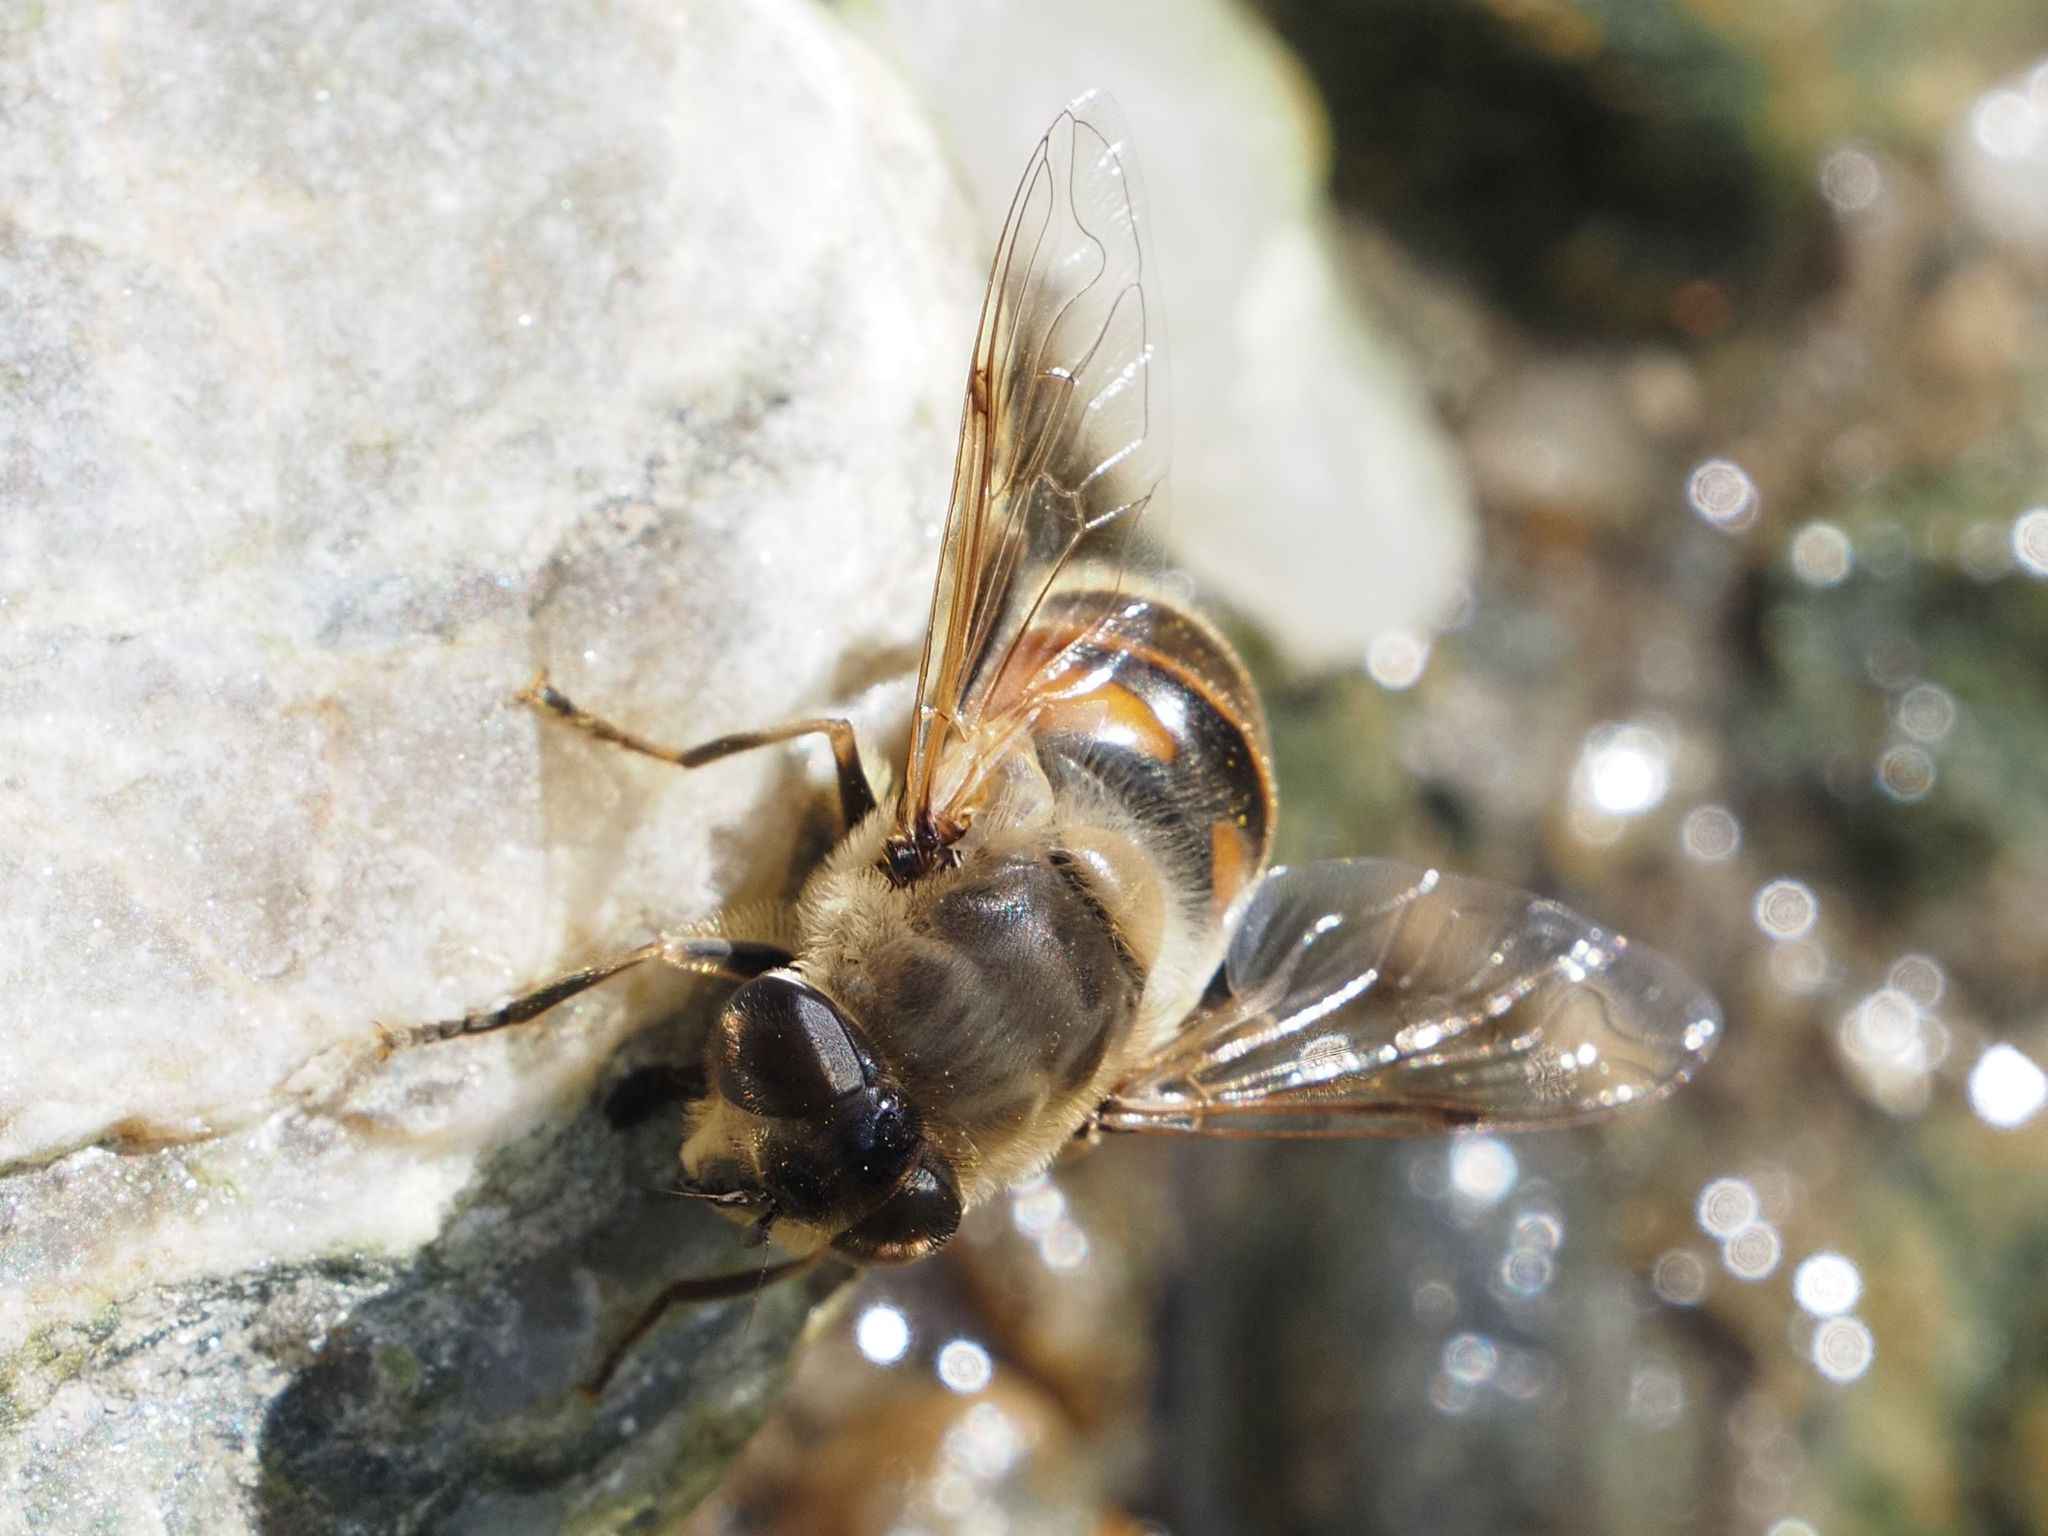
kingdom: Animalia
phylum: Arthropoda
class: Insecta
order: Diptera
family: Syrphidae
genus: Eristalis
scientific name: Eristalis tenax
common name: Drone fly
